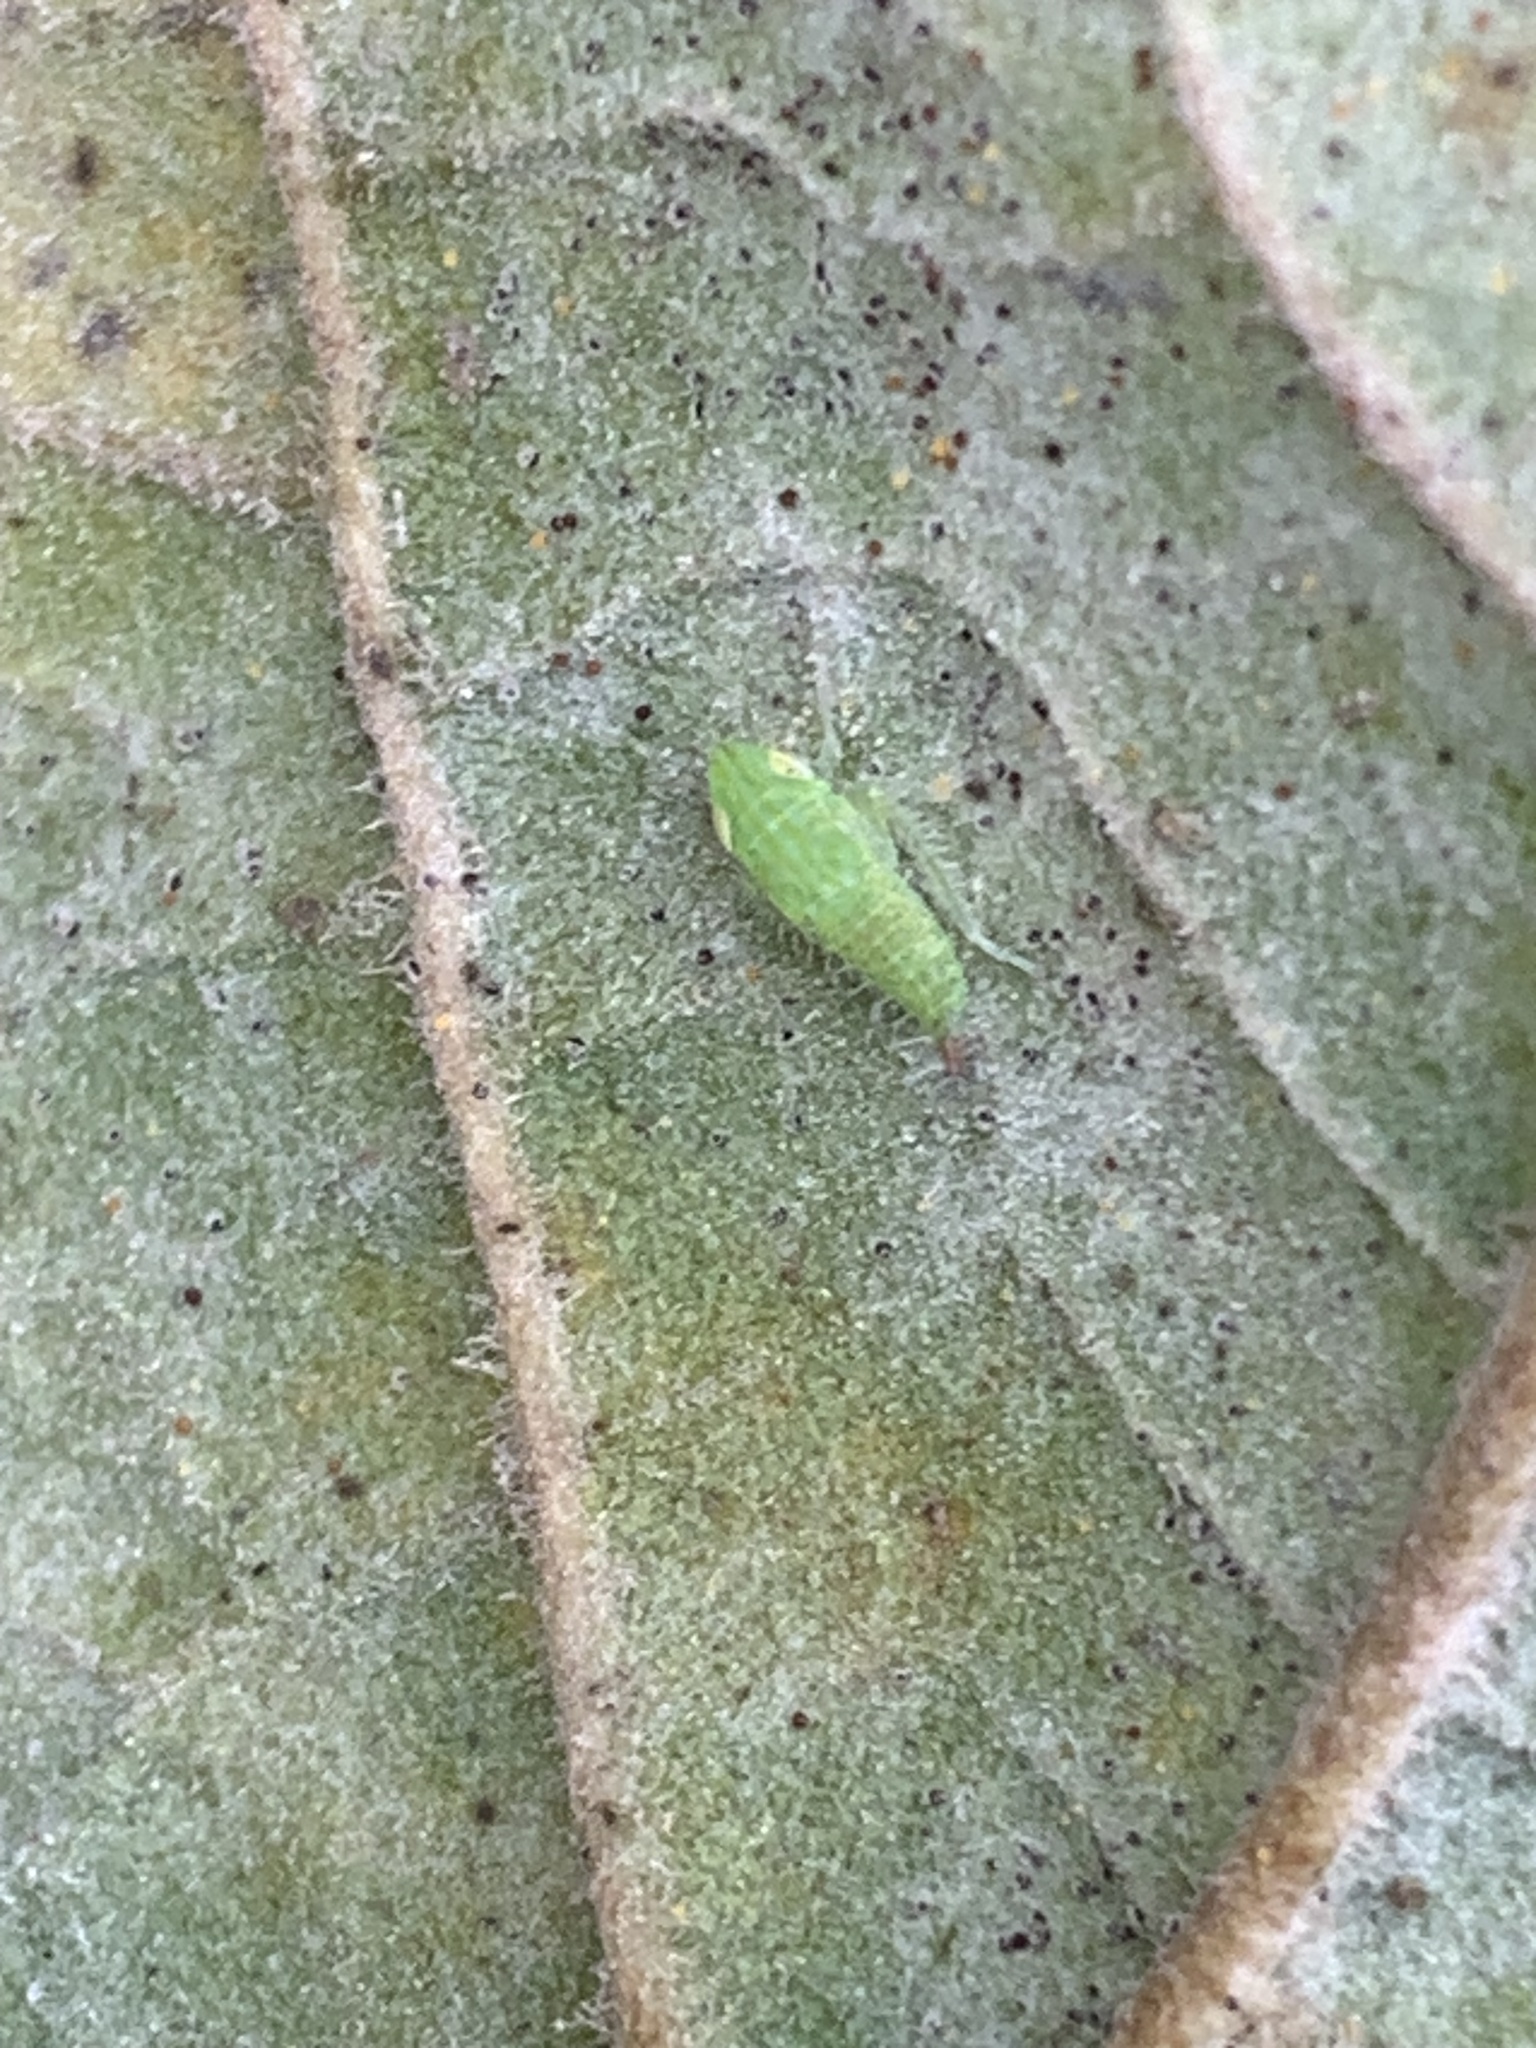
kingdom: Animalia
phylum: Arthropoda
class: Insecta
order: Hemiptera
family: Cicadellidae
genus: Fieberiella
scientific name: Fieberiella florii
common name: Flor’s leafhopper
